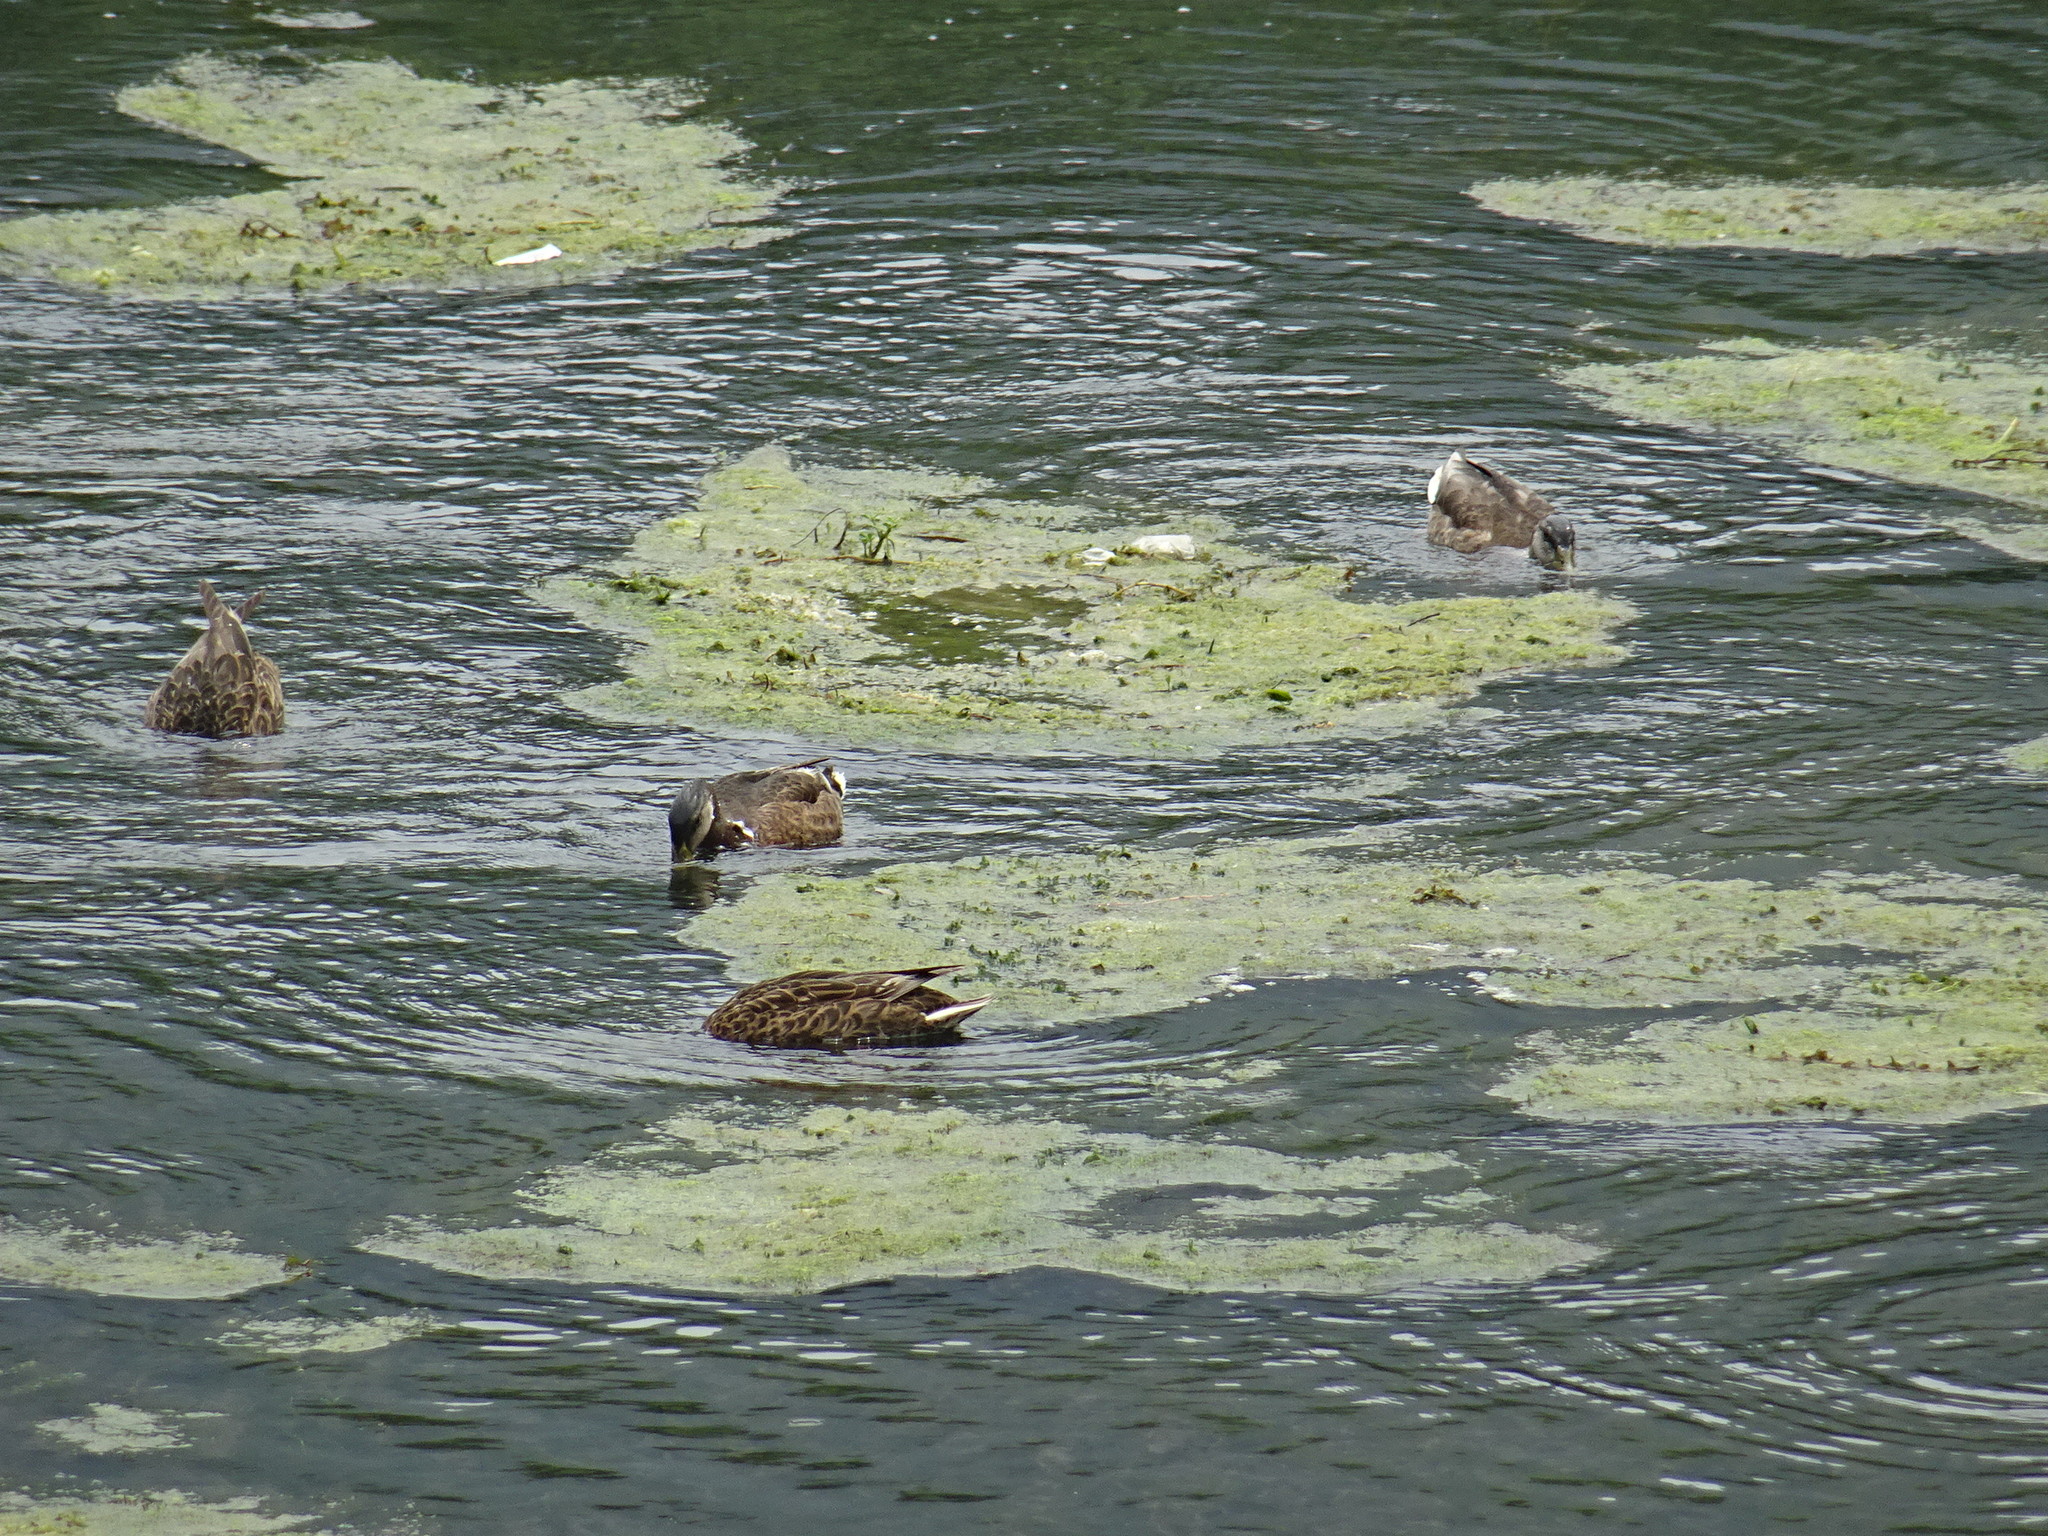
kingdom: Animalia
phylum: Chordata
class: Aves
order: Anseriformes
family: Anatidae
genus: Anas
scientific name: Anas platyrhynchos
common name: Mallard
